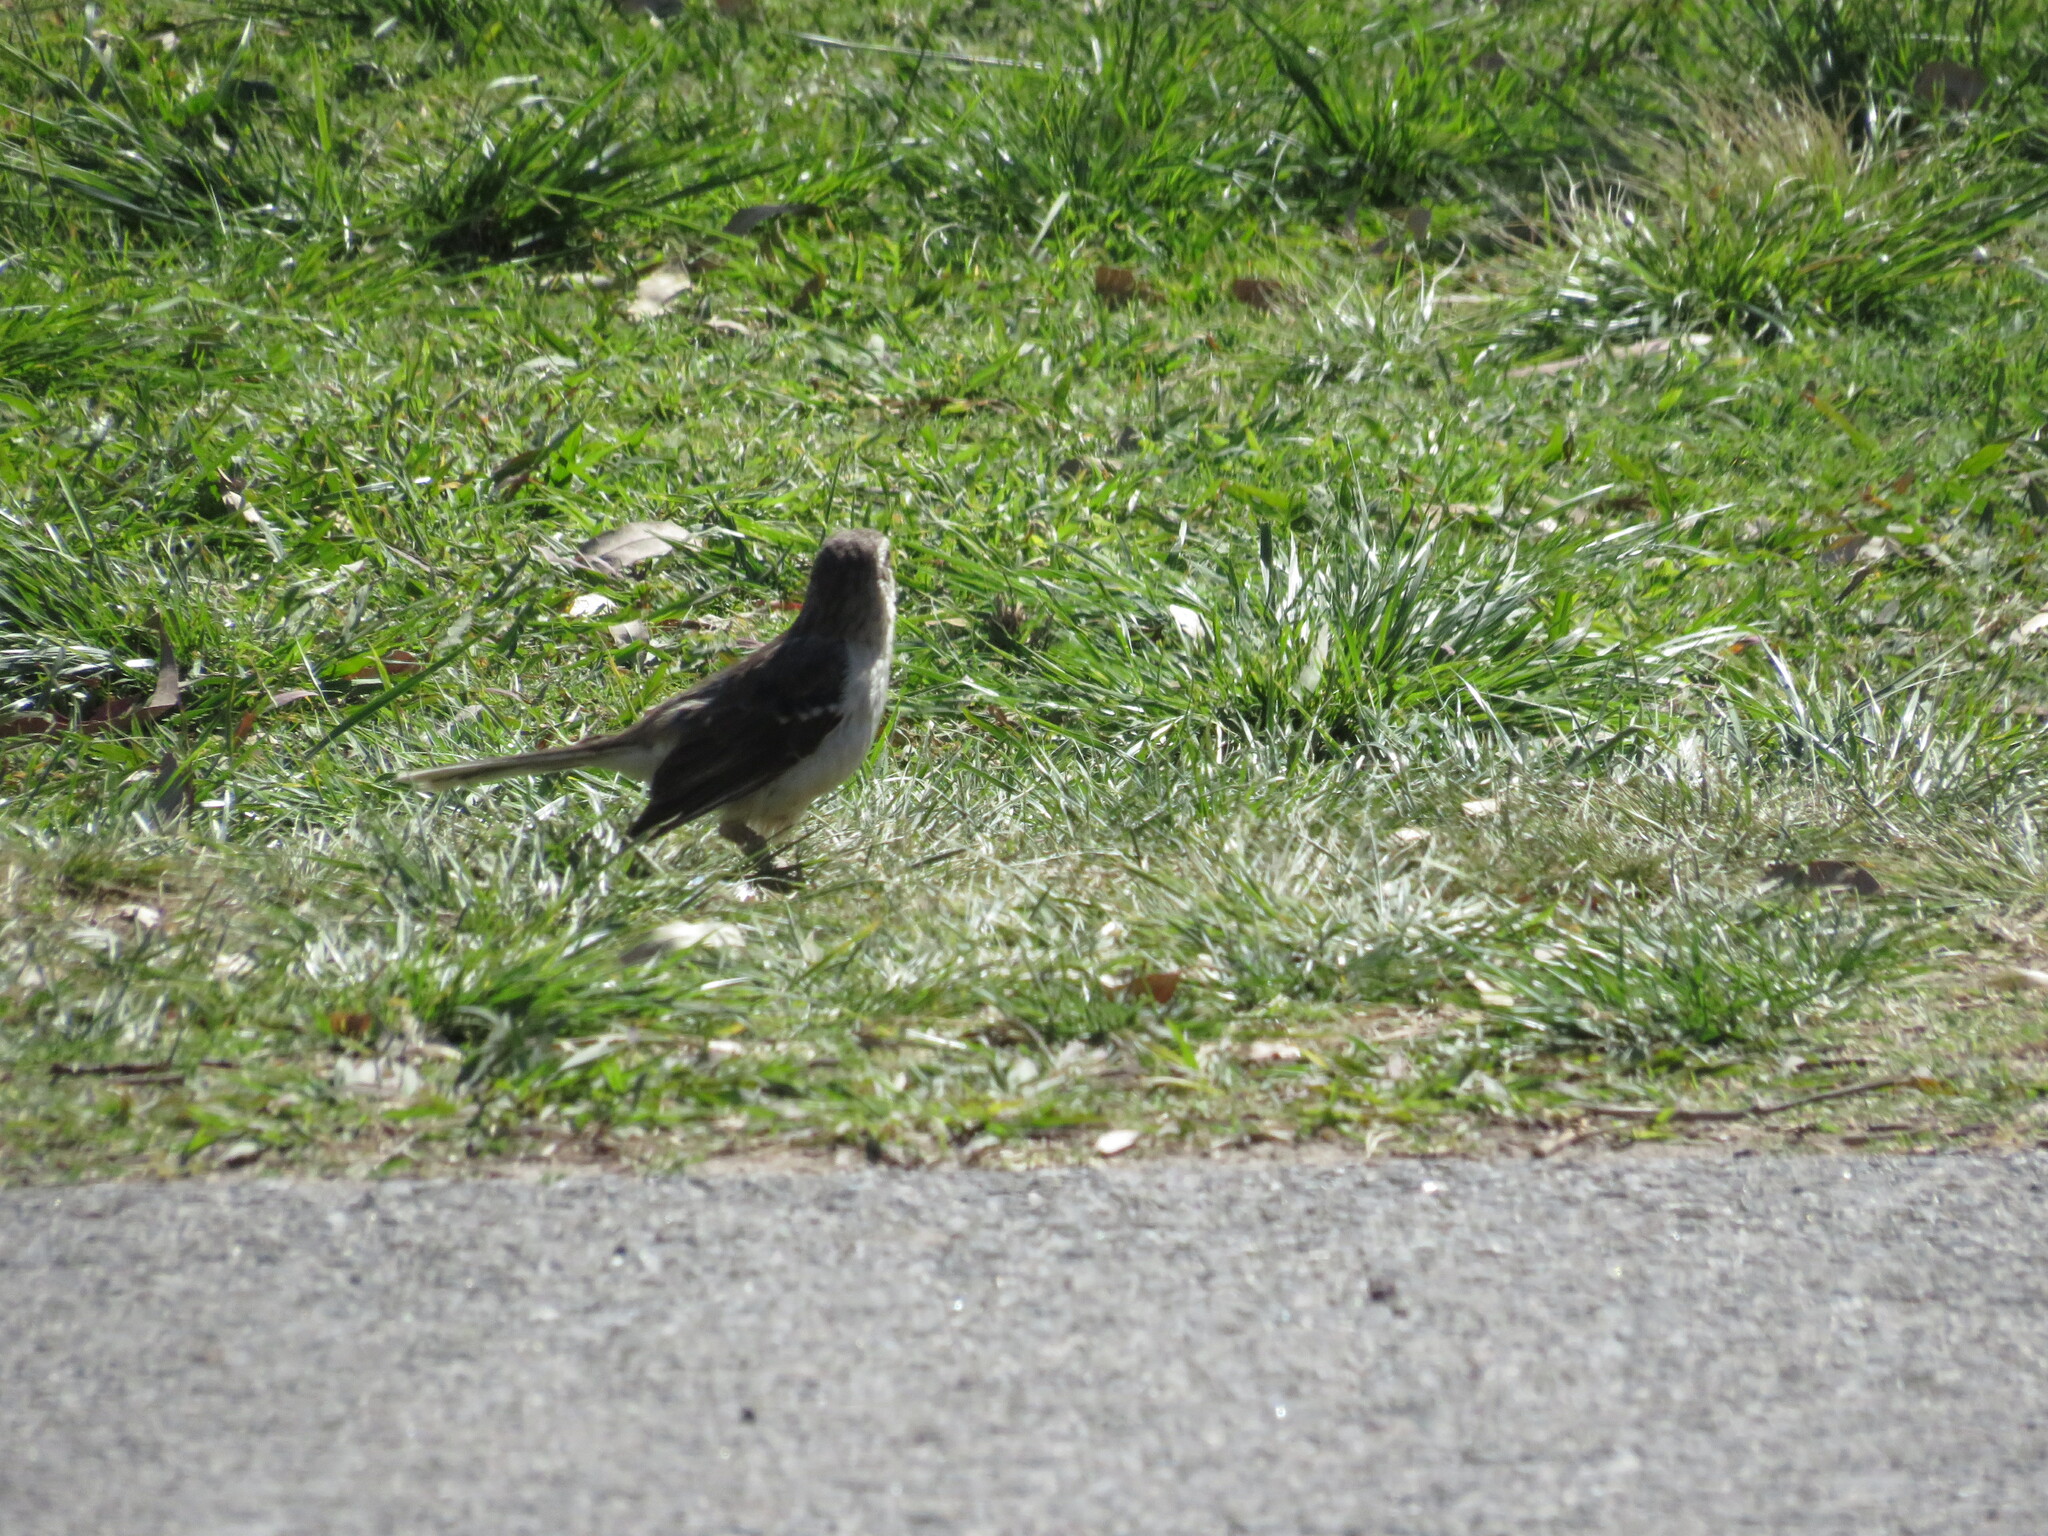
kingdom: Animalia
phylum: Chordata
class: Aves
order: Passeriformes
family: Mimidae
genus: Mimus
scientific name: Mimus saturninus
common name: Chalk-browed mockingbird
